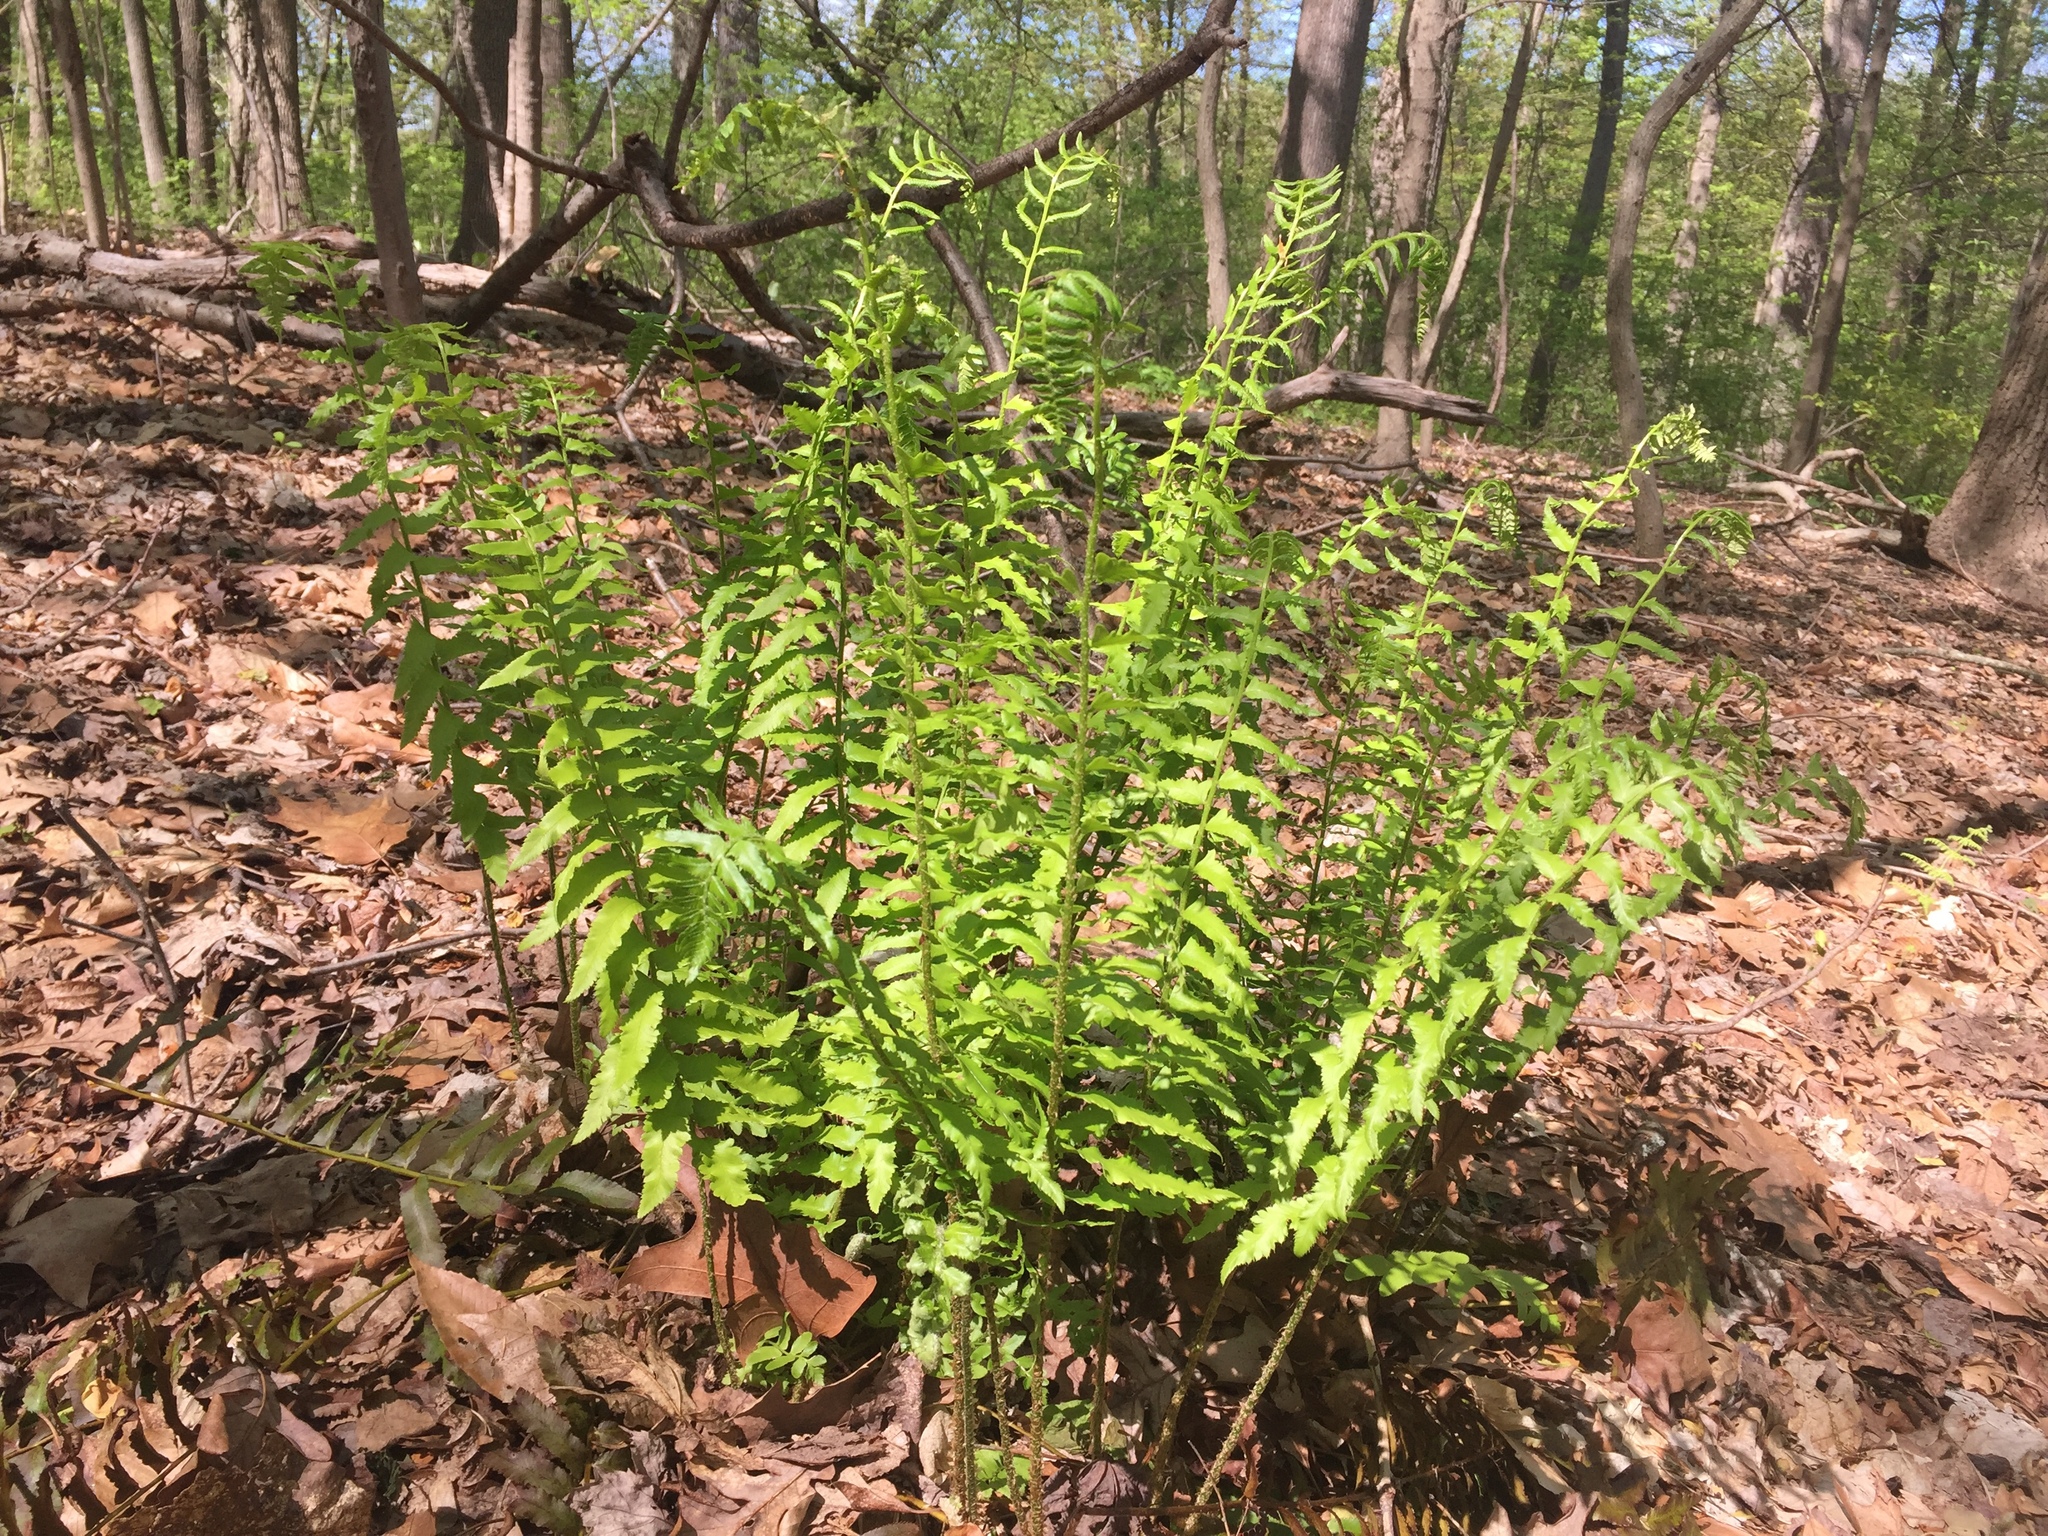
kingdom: Plantae
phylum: Tracheophyta
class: Polypodiopsida
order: Polypodiales
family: Dryopteridaceae
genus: Polystichum
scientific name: Polystichum acrostichoides
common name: Christmas fern
